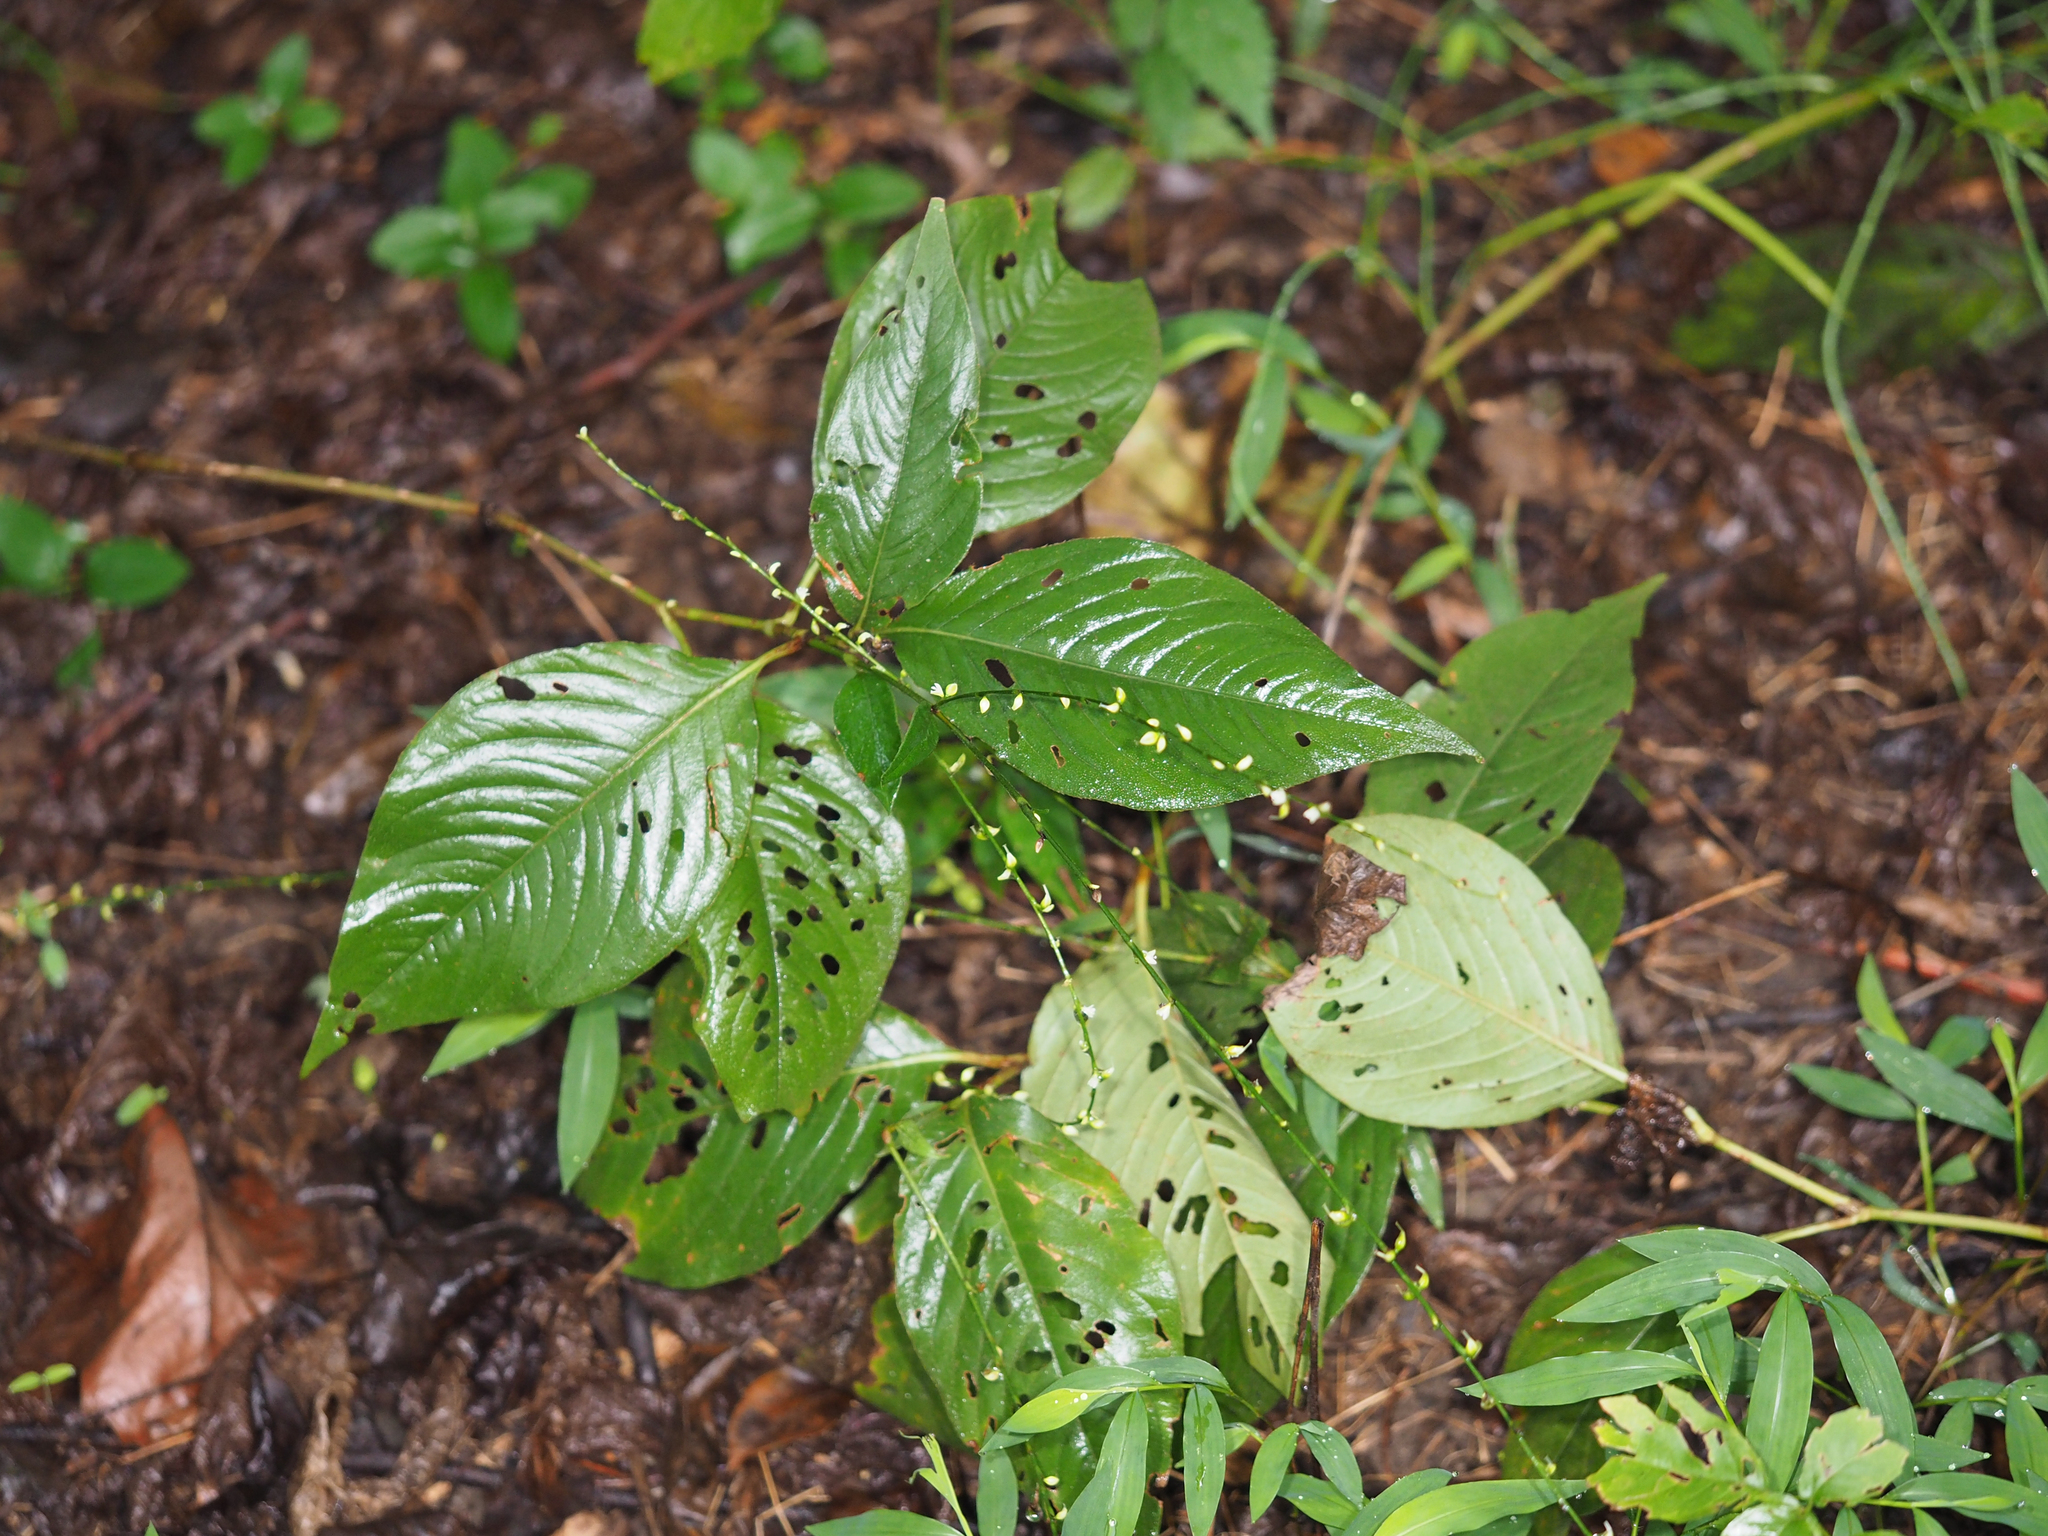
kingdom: Plantae
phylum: Tracheophyta
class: Magnoliopsida
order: Caryophyllales
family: Polygonaceae
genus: Persicaria
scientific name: Persicaria virginiana
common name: Jumpseed
